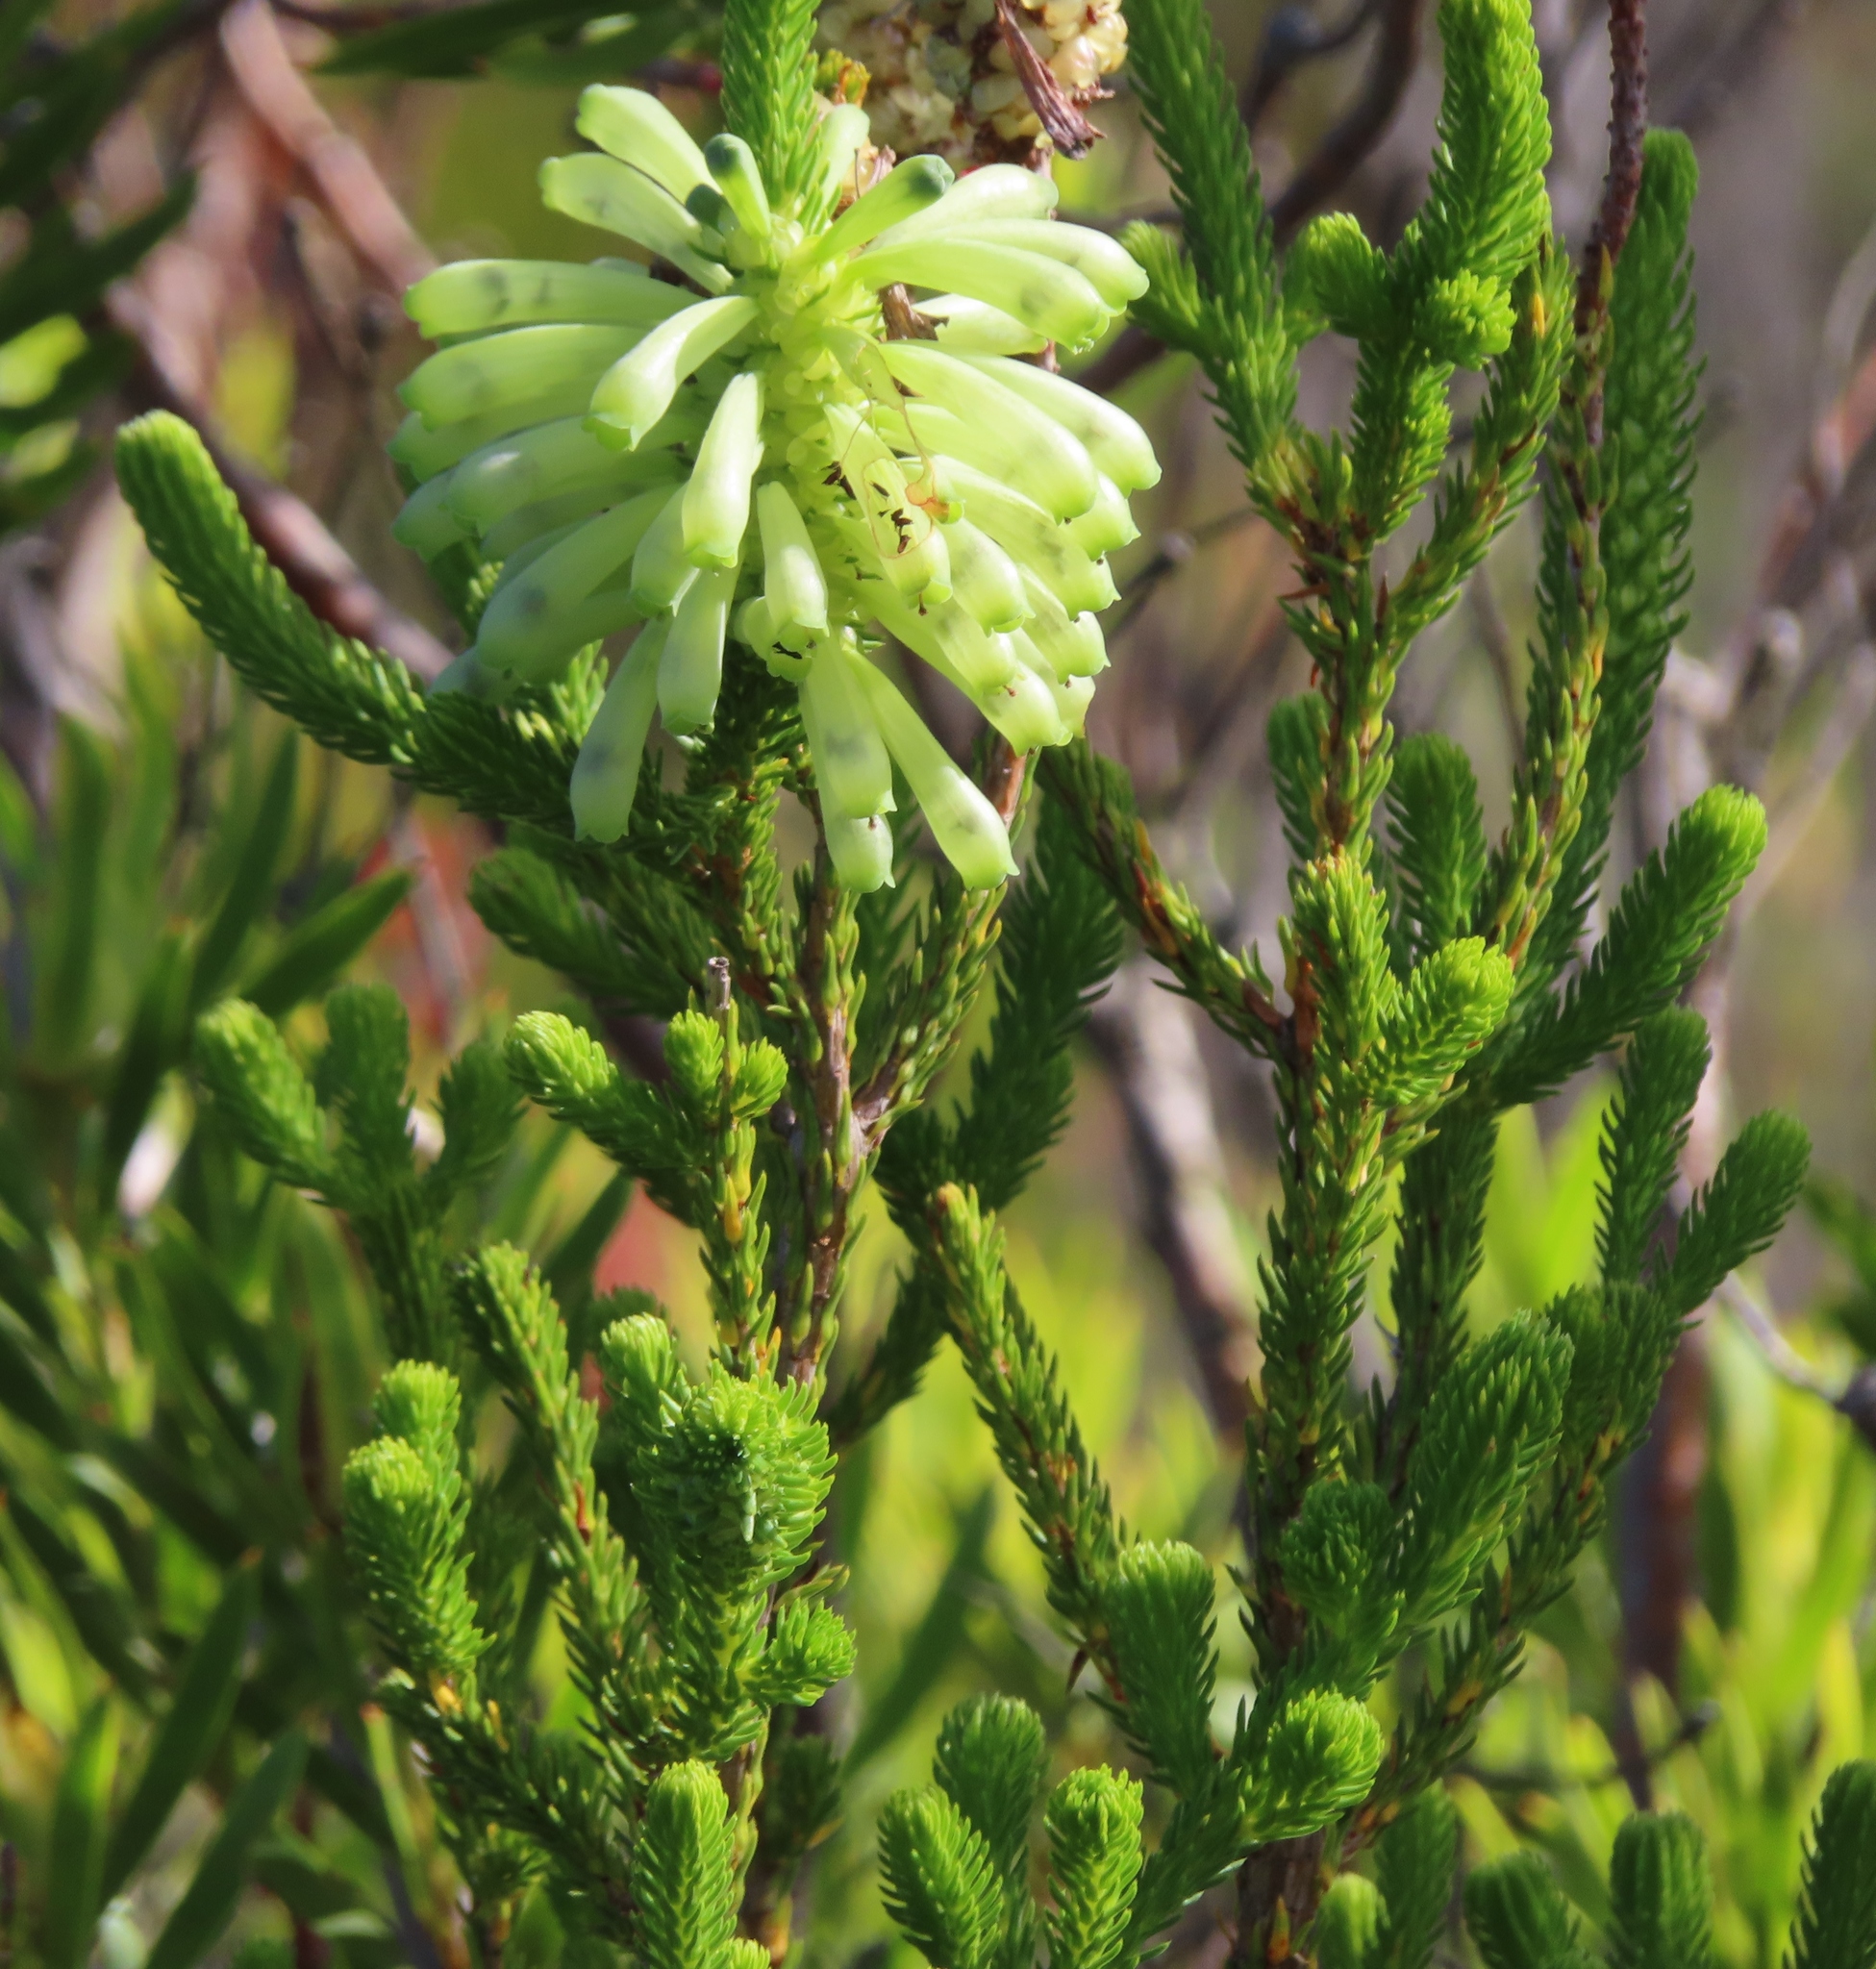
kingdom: Plantae
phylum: Tracheophyta
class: Magnoliopsida
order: Ericales
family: Ericaceae
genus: Erica
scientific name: Erica sessiliflora
